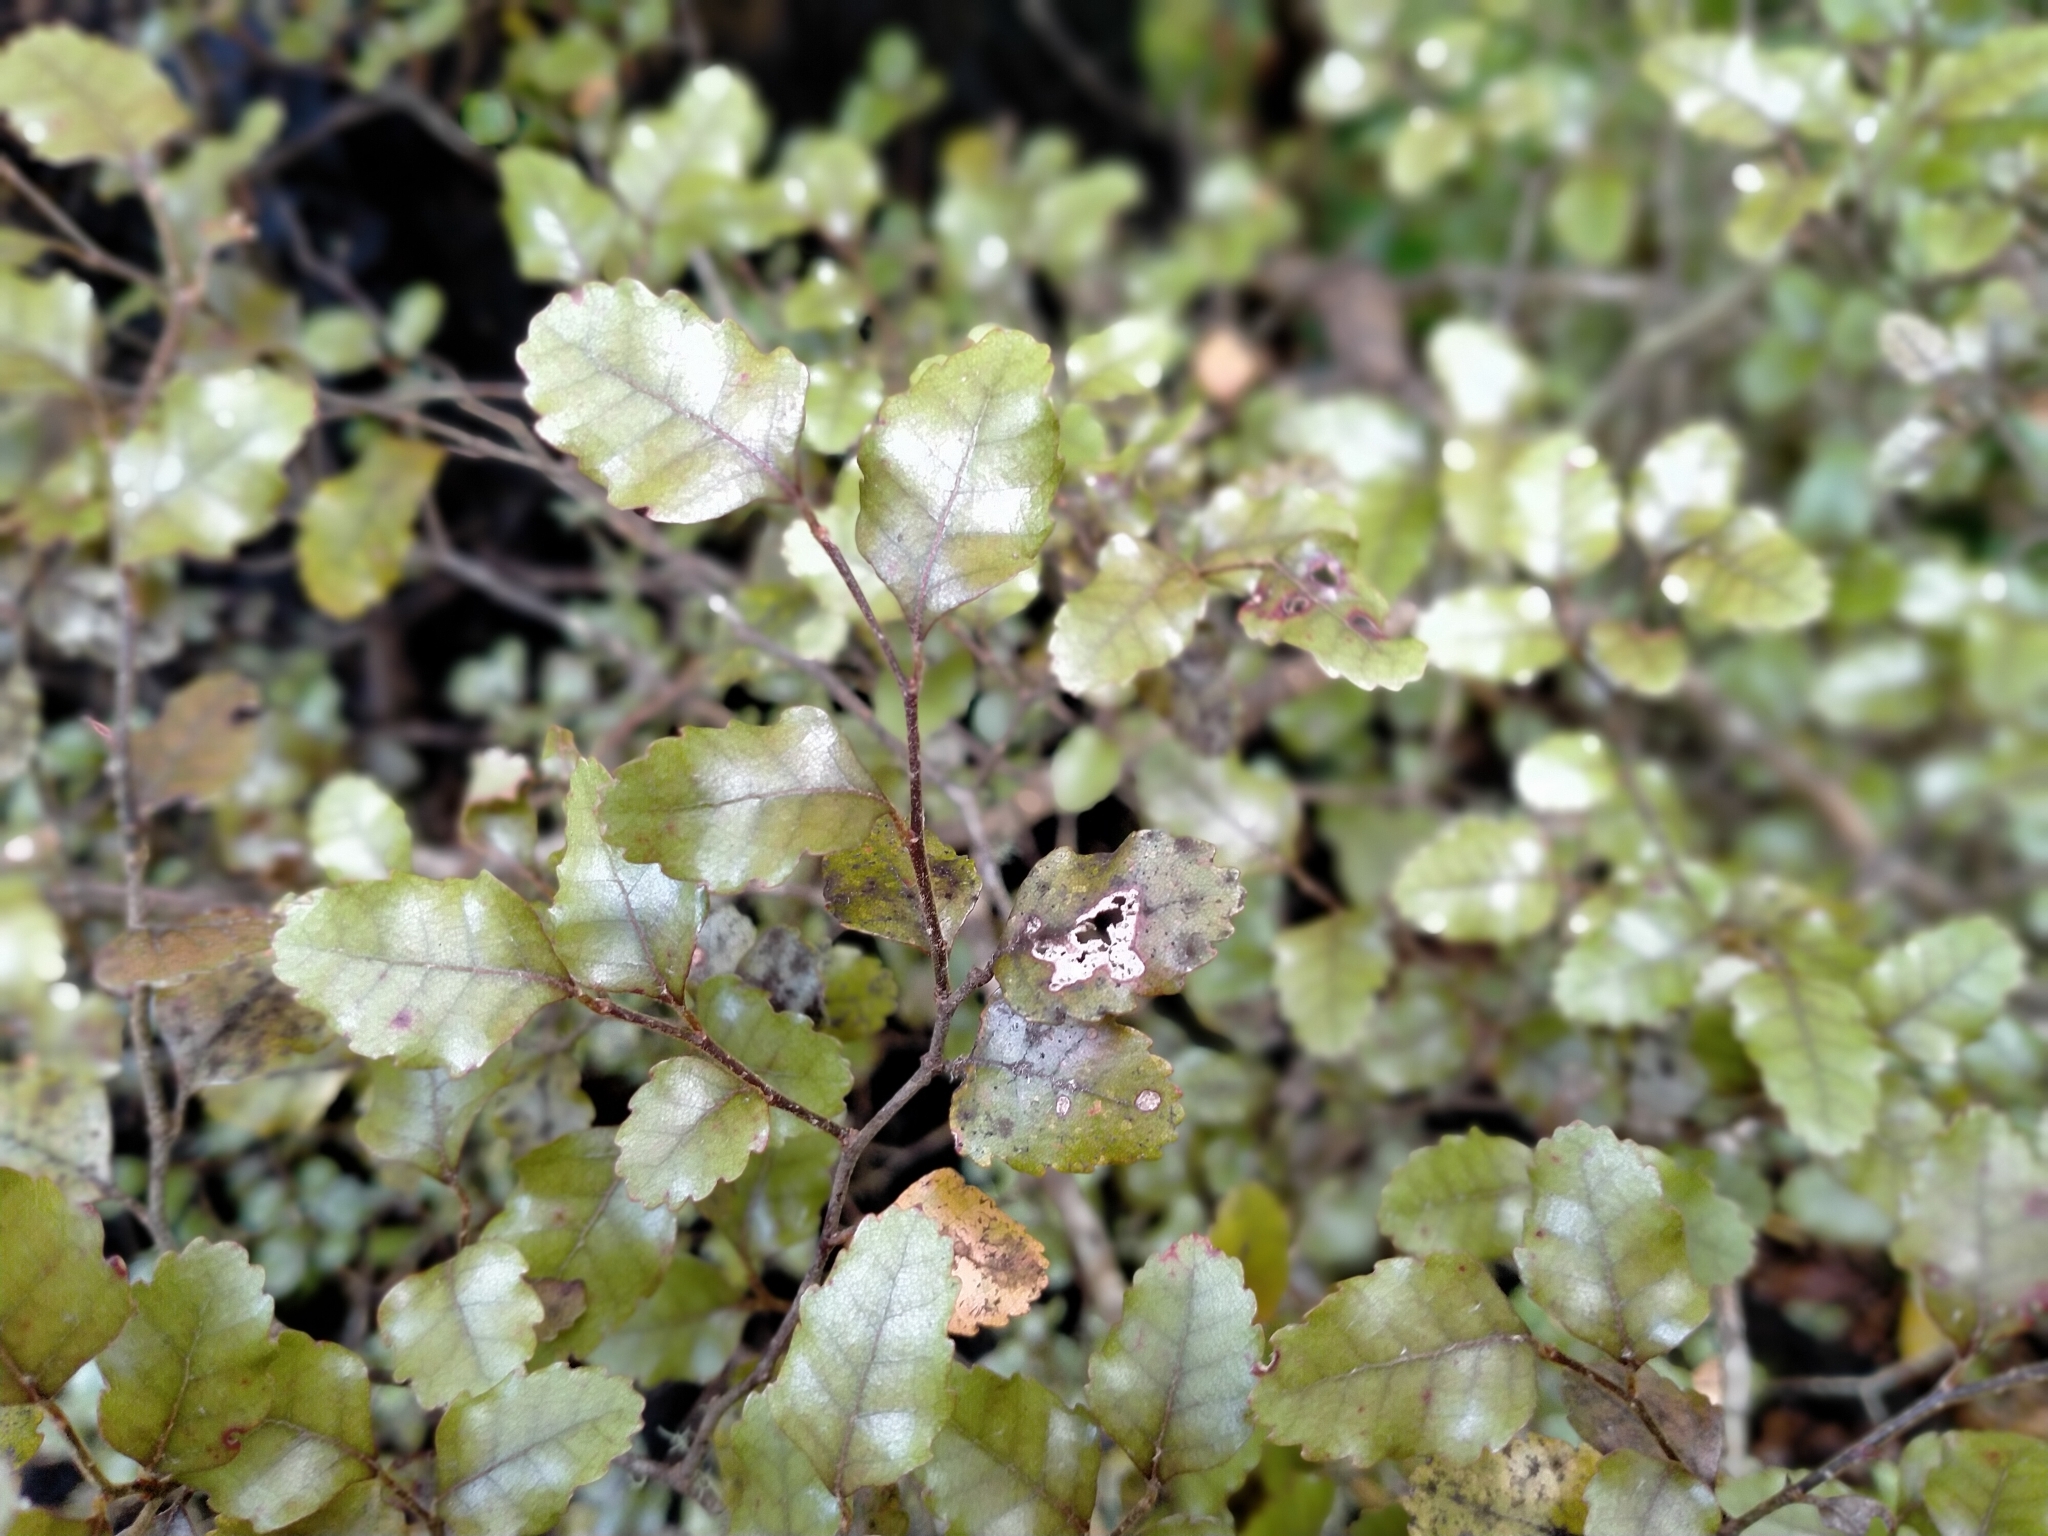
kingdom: Plantae
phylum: Tracheophyta
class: Magnoliopsida
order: Fagales
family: Nothofagaceae
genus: Nothofagus
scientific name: Nothofagus truncata
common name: Hard beech
